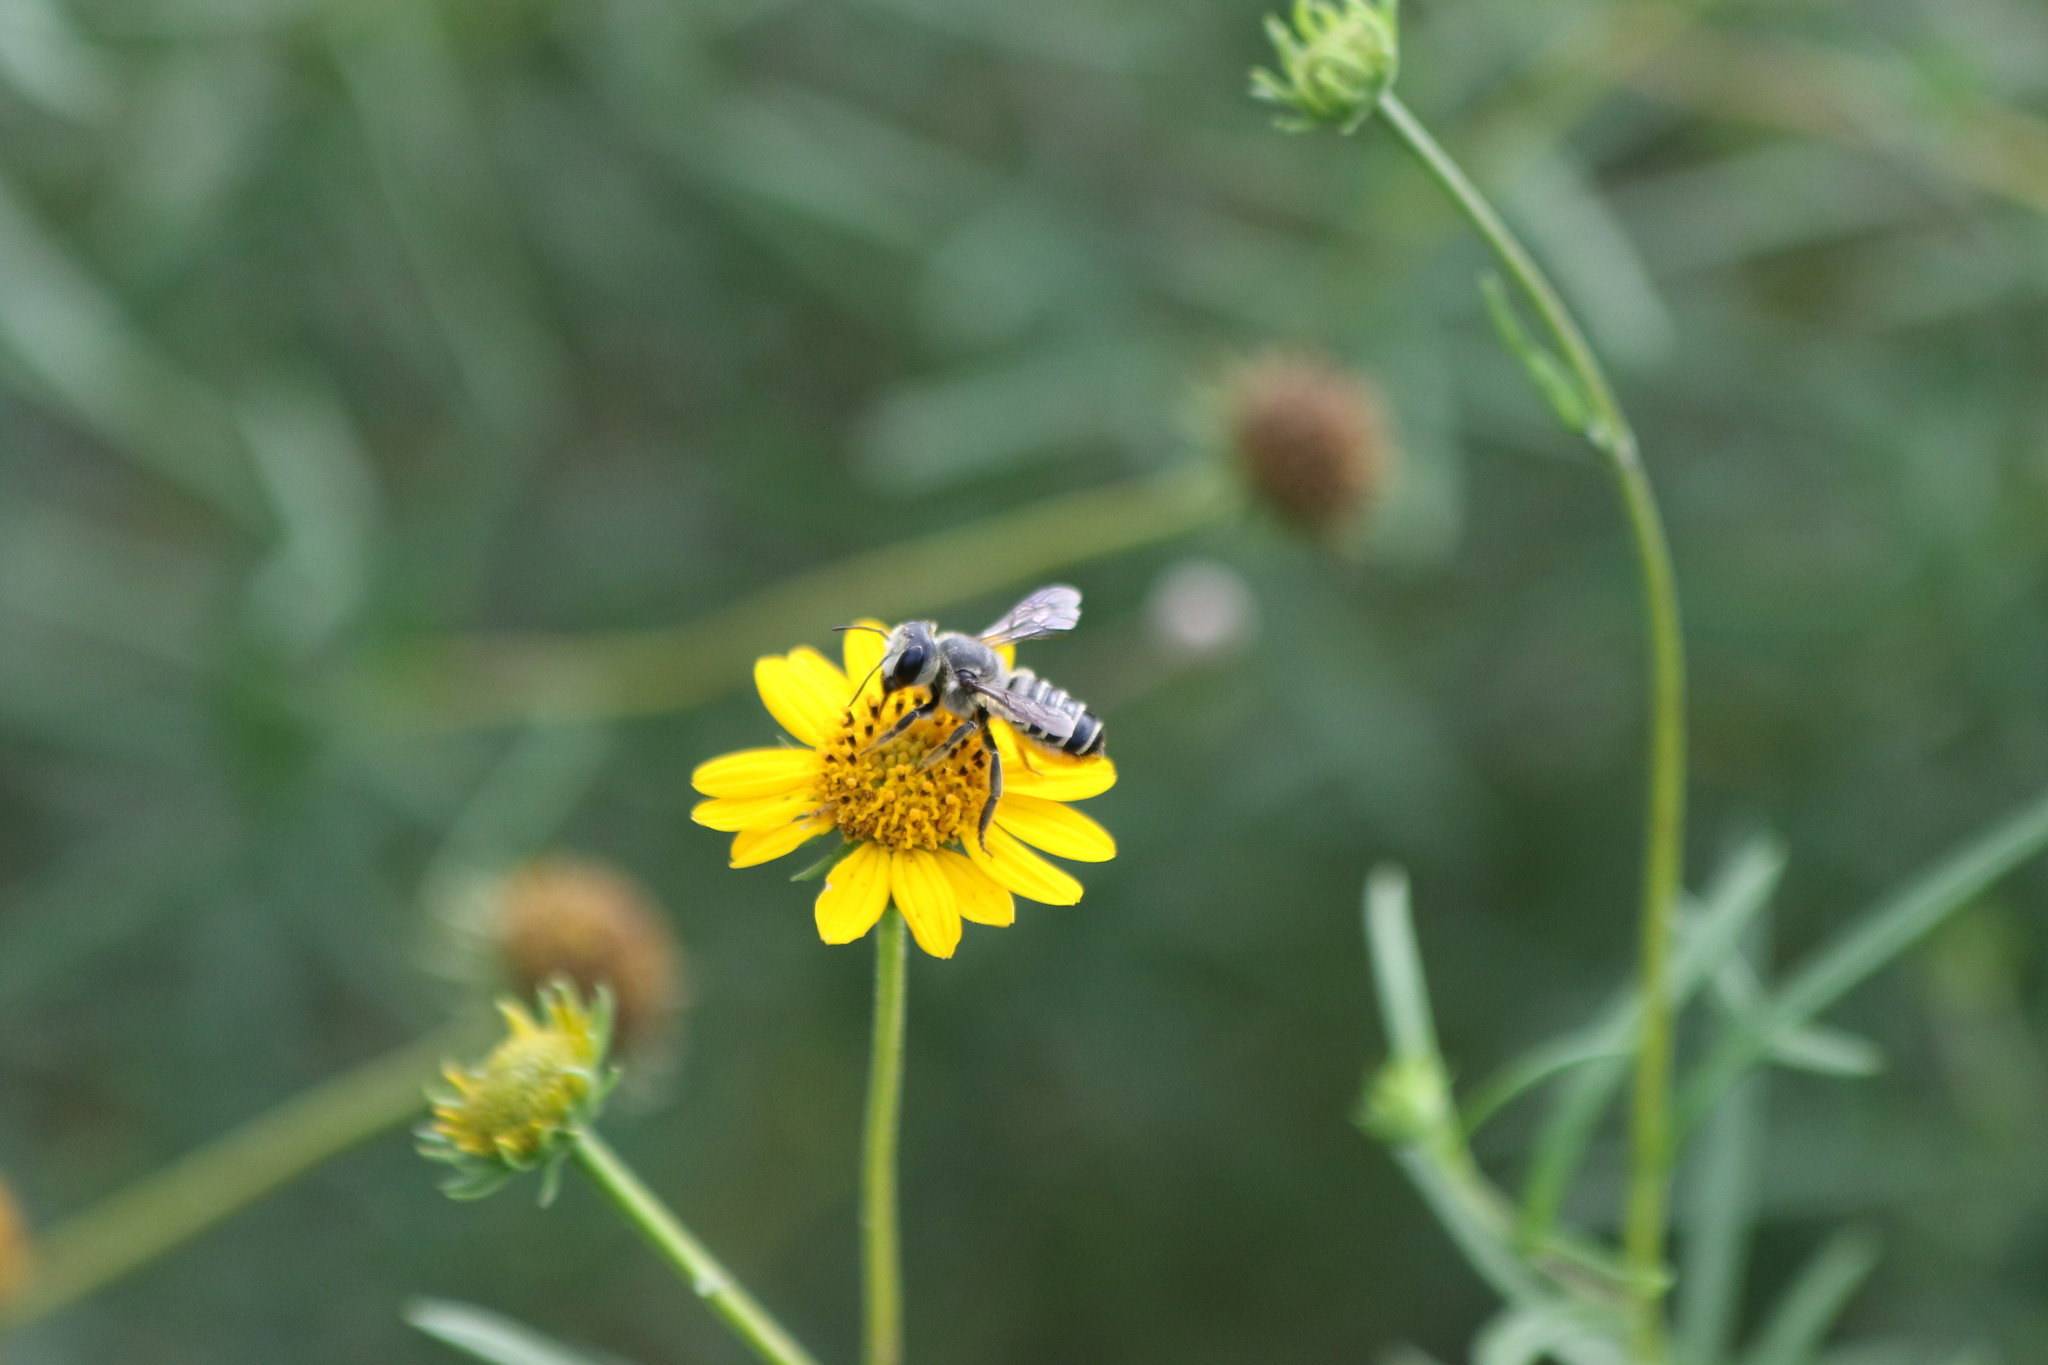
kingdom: Animalia
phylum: Arthropoda
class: Insecta
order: Hymenoptera
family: Megachilidae
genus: Megachile
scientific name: Megachile zaptlana
